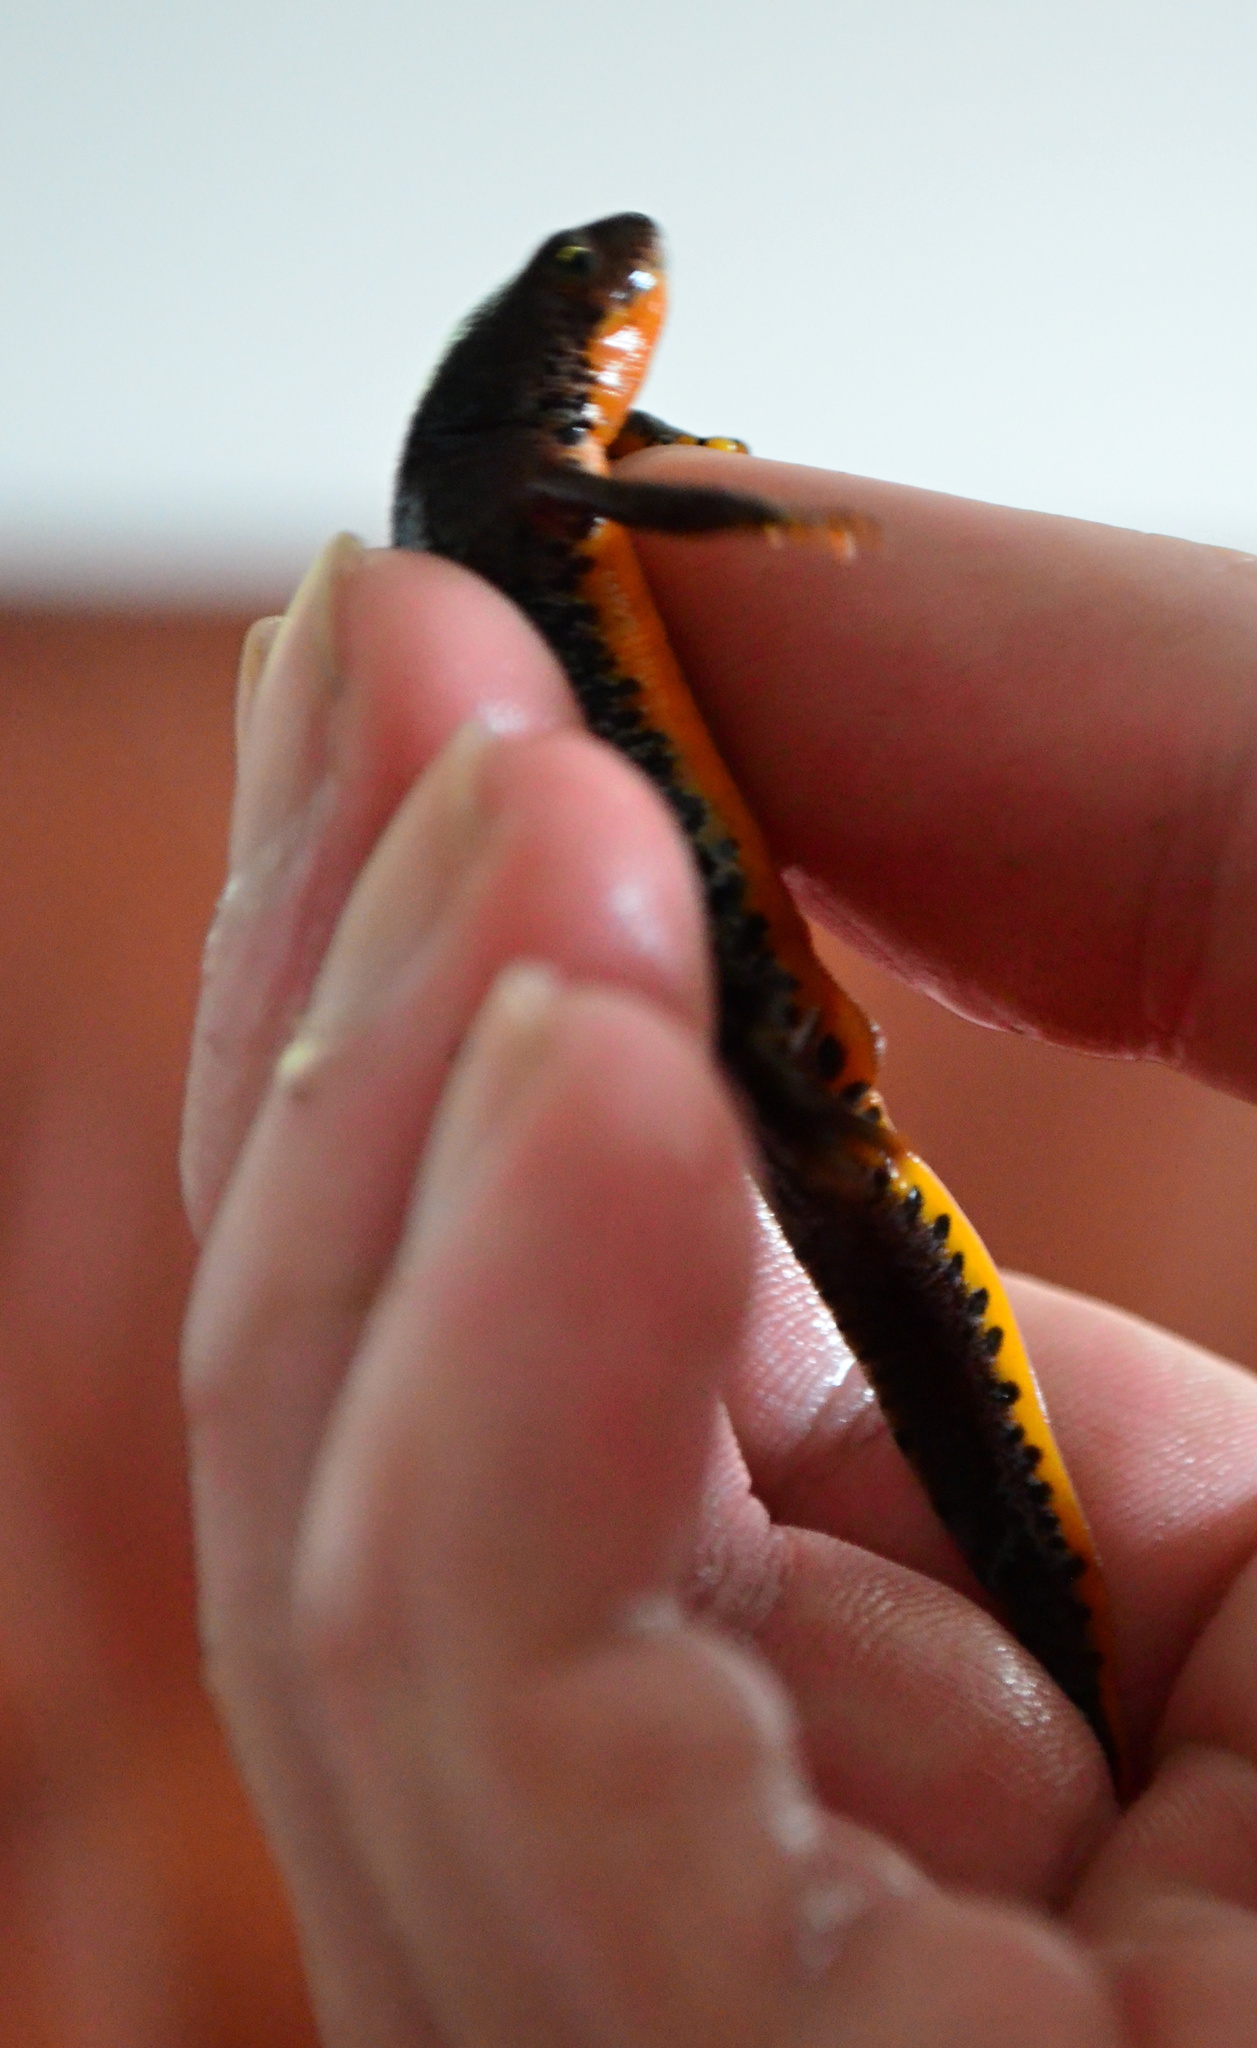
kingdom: Animalia
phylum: Chordata
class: Amphibia
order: Caudata
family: Salamandridae
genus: Ichthyosaura
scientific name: Ichthyosaura alpestris
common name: Alpine newt
